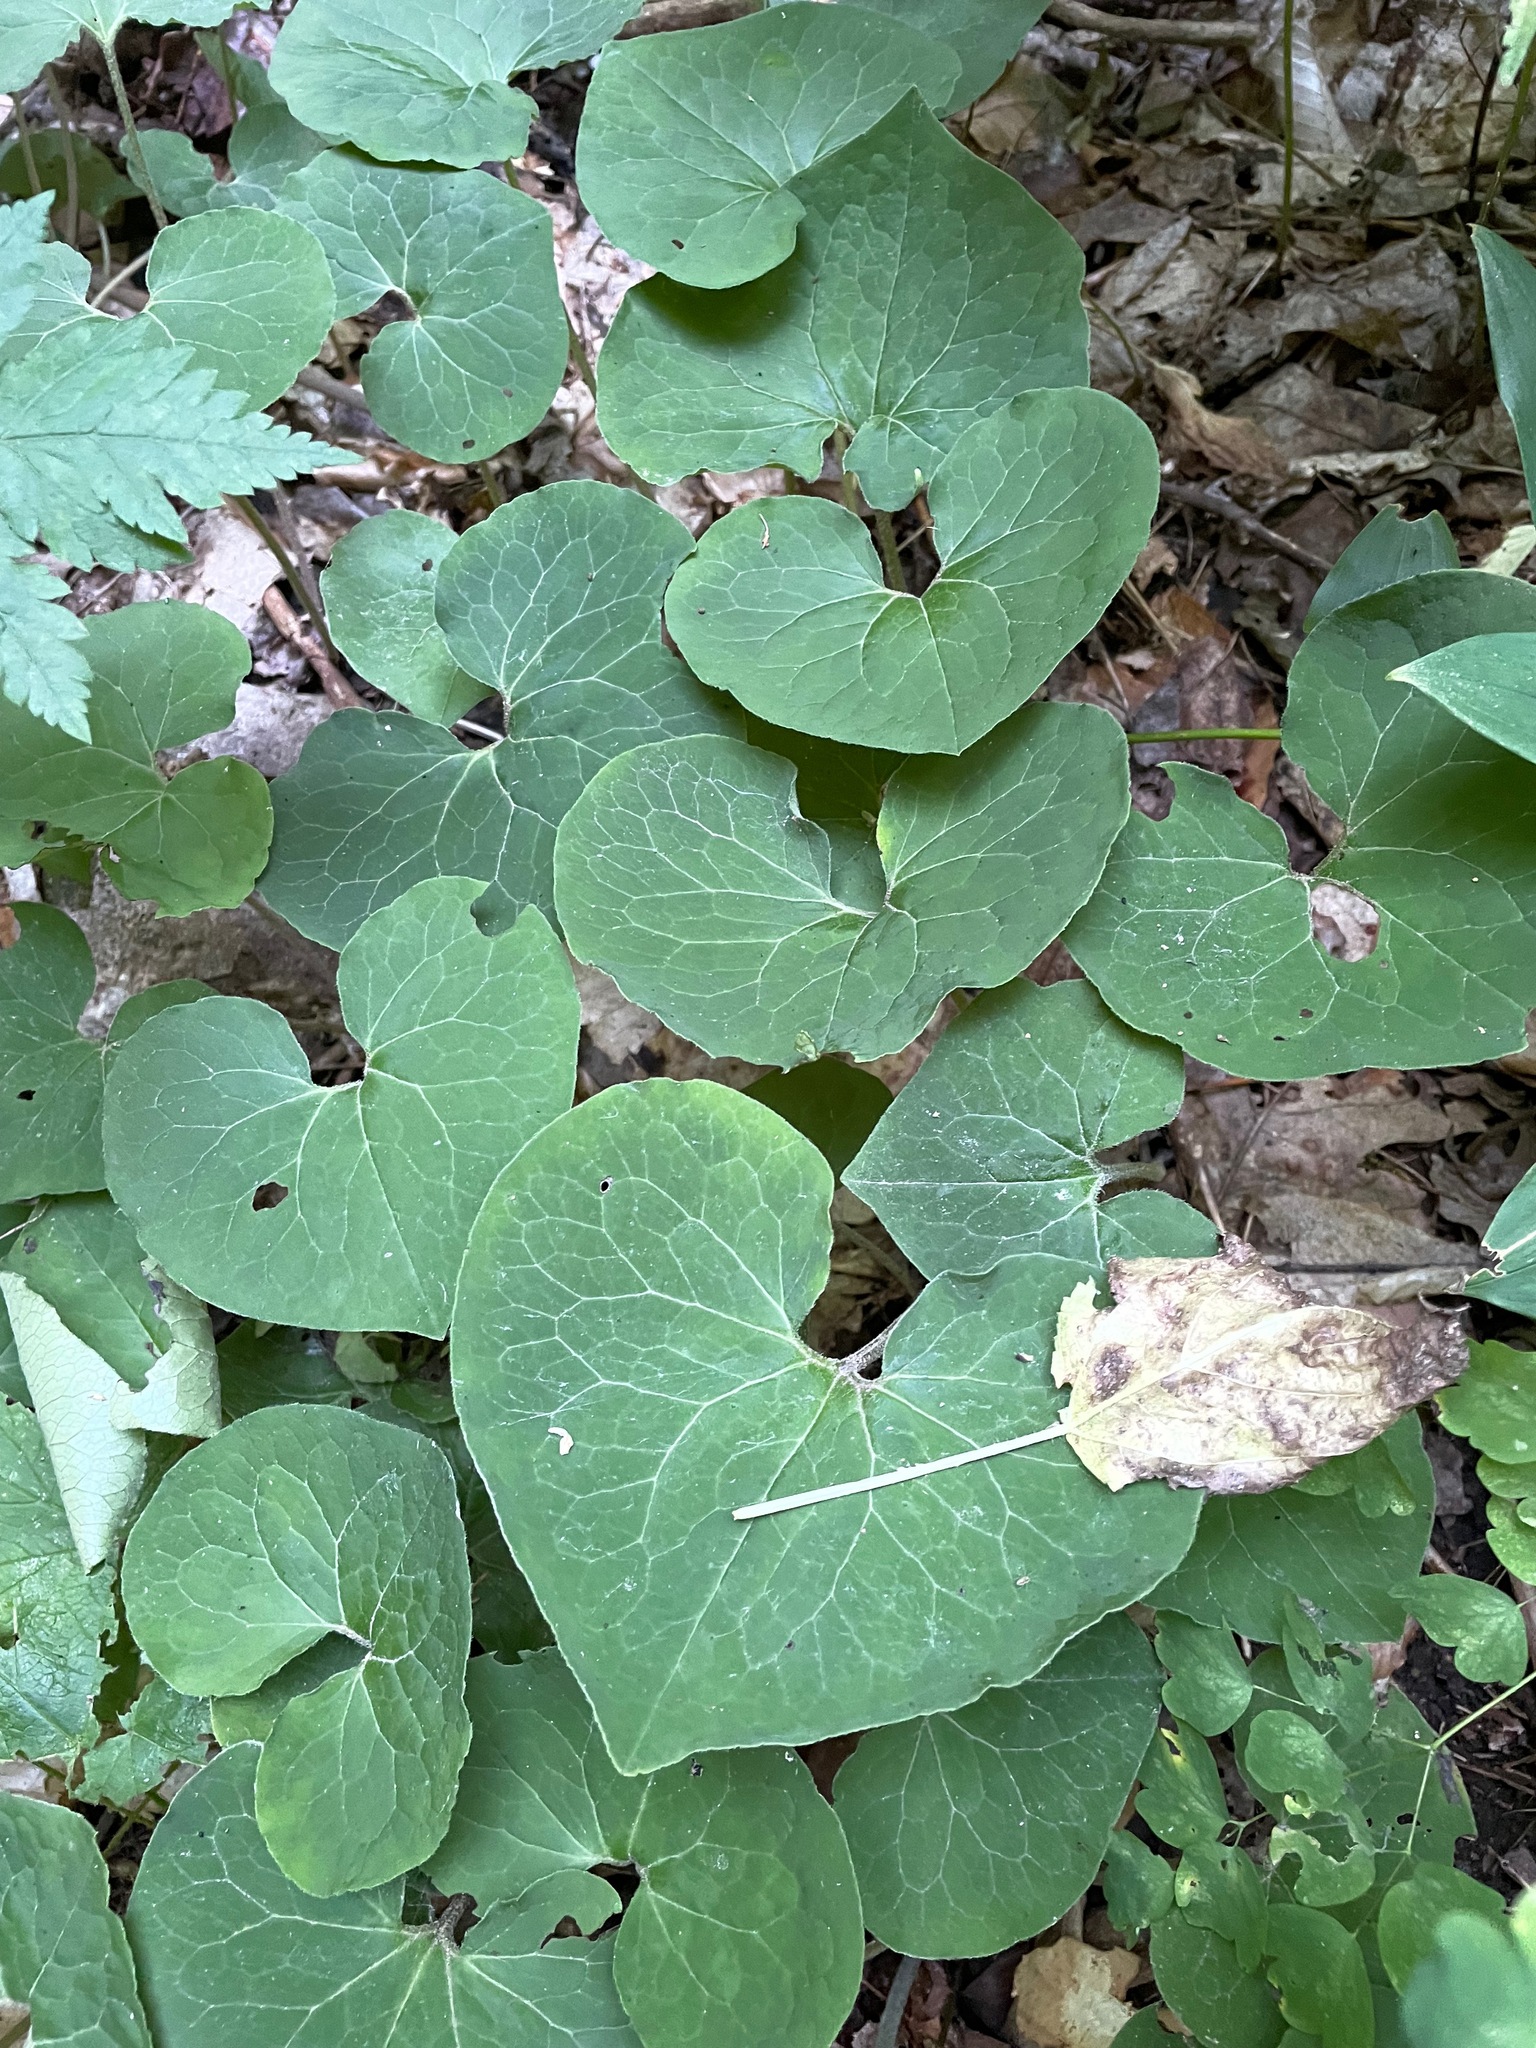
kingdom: Plantae
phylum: Tracheophyta
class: Magnoliopsida
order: Piperales
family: Aristolochiaceae
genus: Asarum
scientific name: Asarum canadense
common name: Wild ginger
